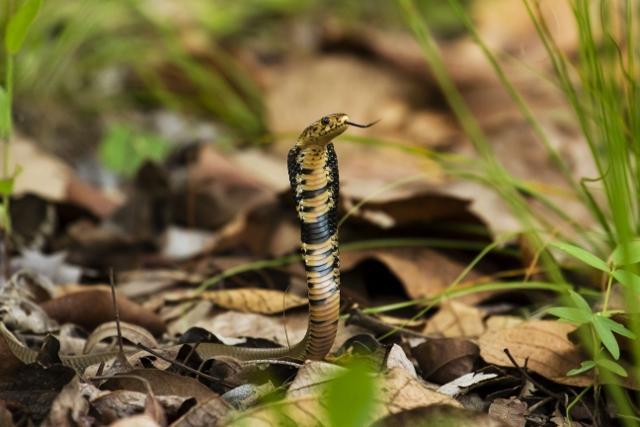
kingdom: Animalia
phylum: Chordata
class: Squamata
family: Elapidae
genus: Naja
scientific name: Naja mossambica
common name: Mozambique spitting cobra
